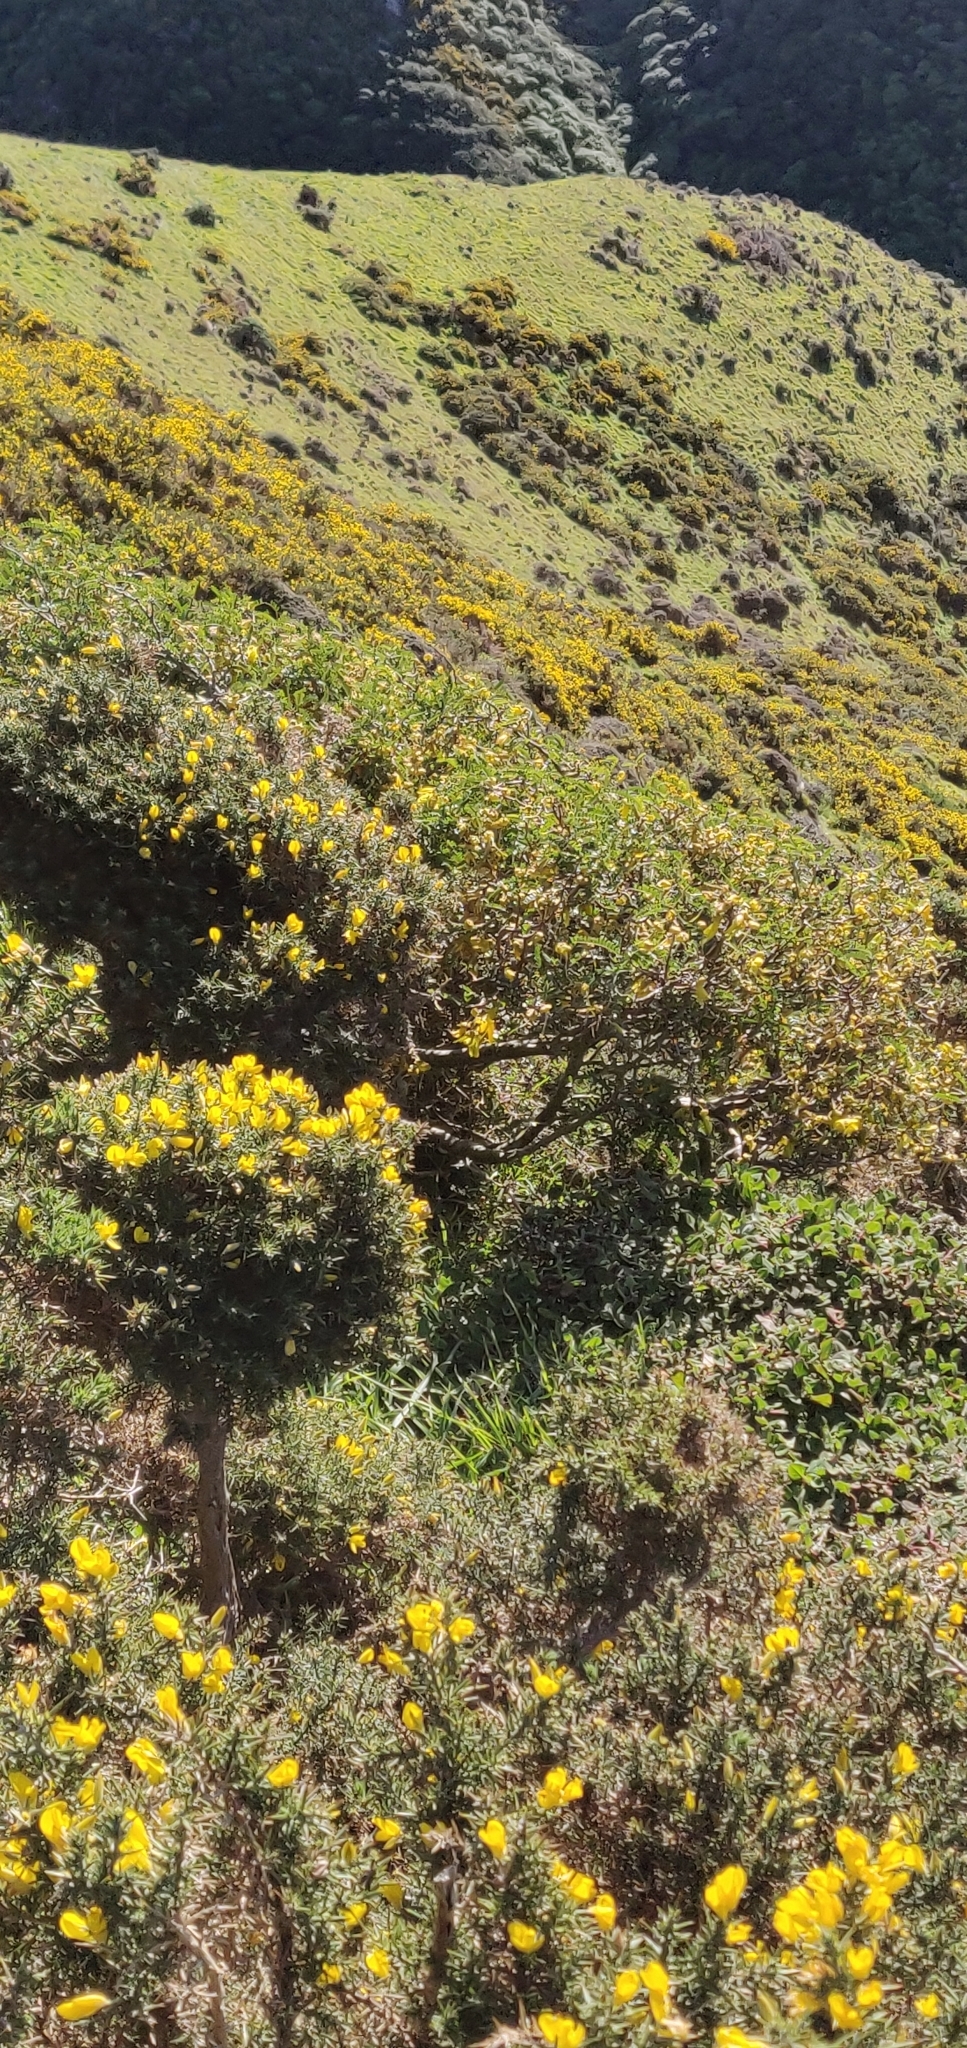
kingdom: Plantae
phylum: Tracheophyta
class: Magnoliopsida
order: Fabales
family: Fabaceae
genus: Sophora
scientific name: Sophora molloyi
